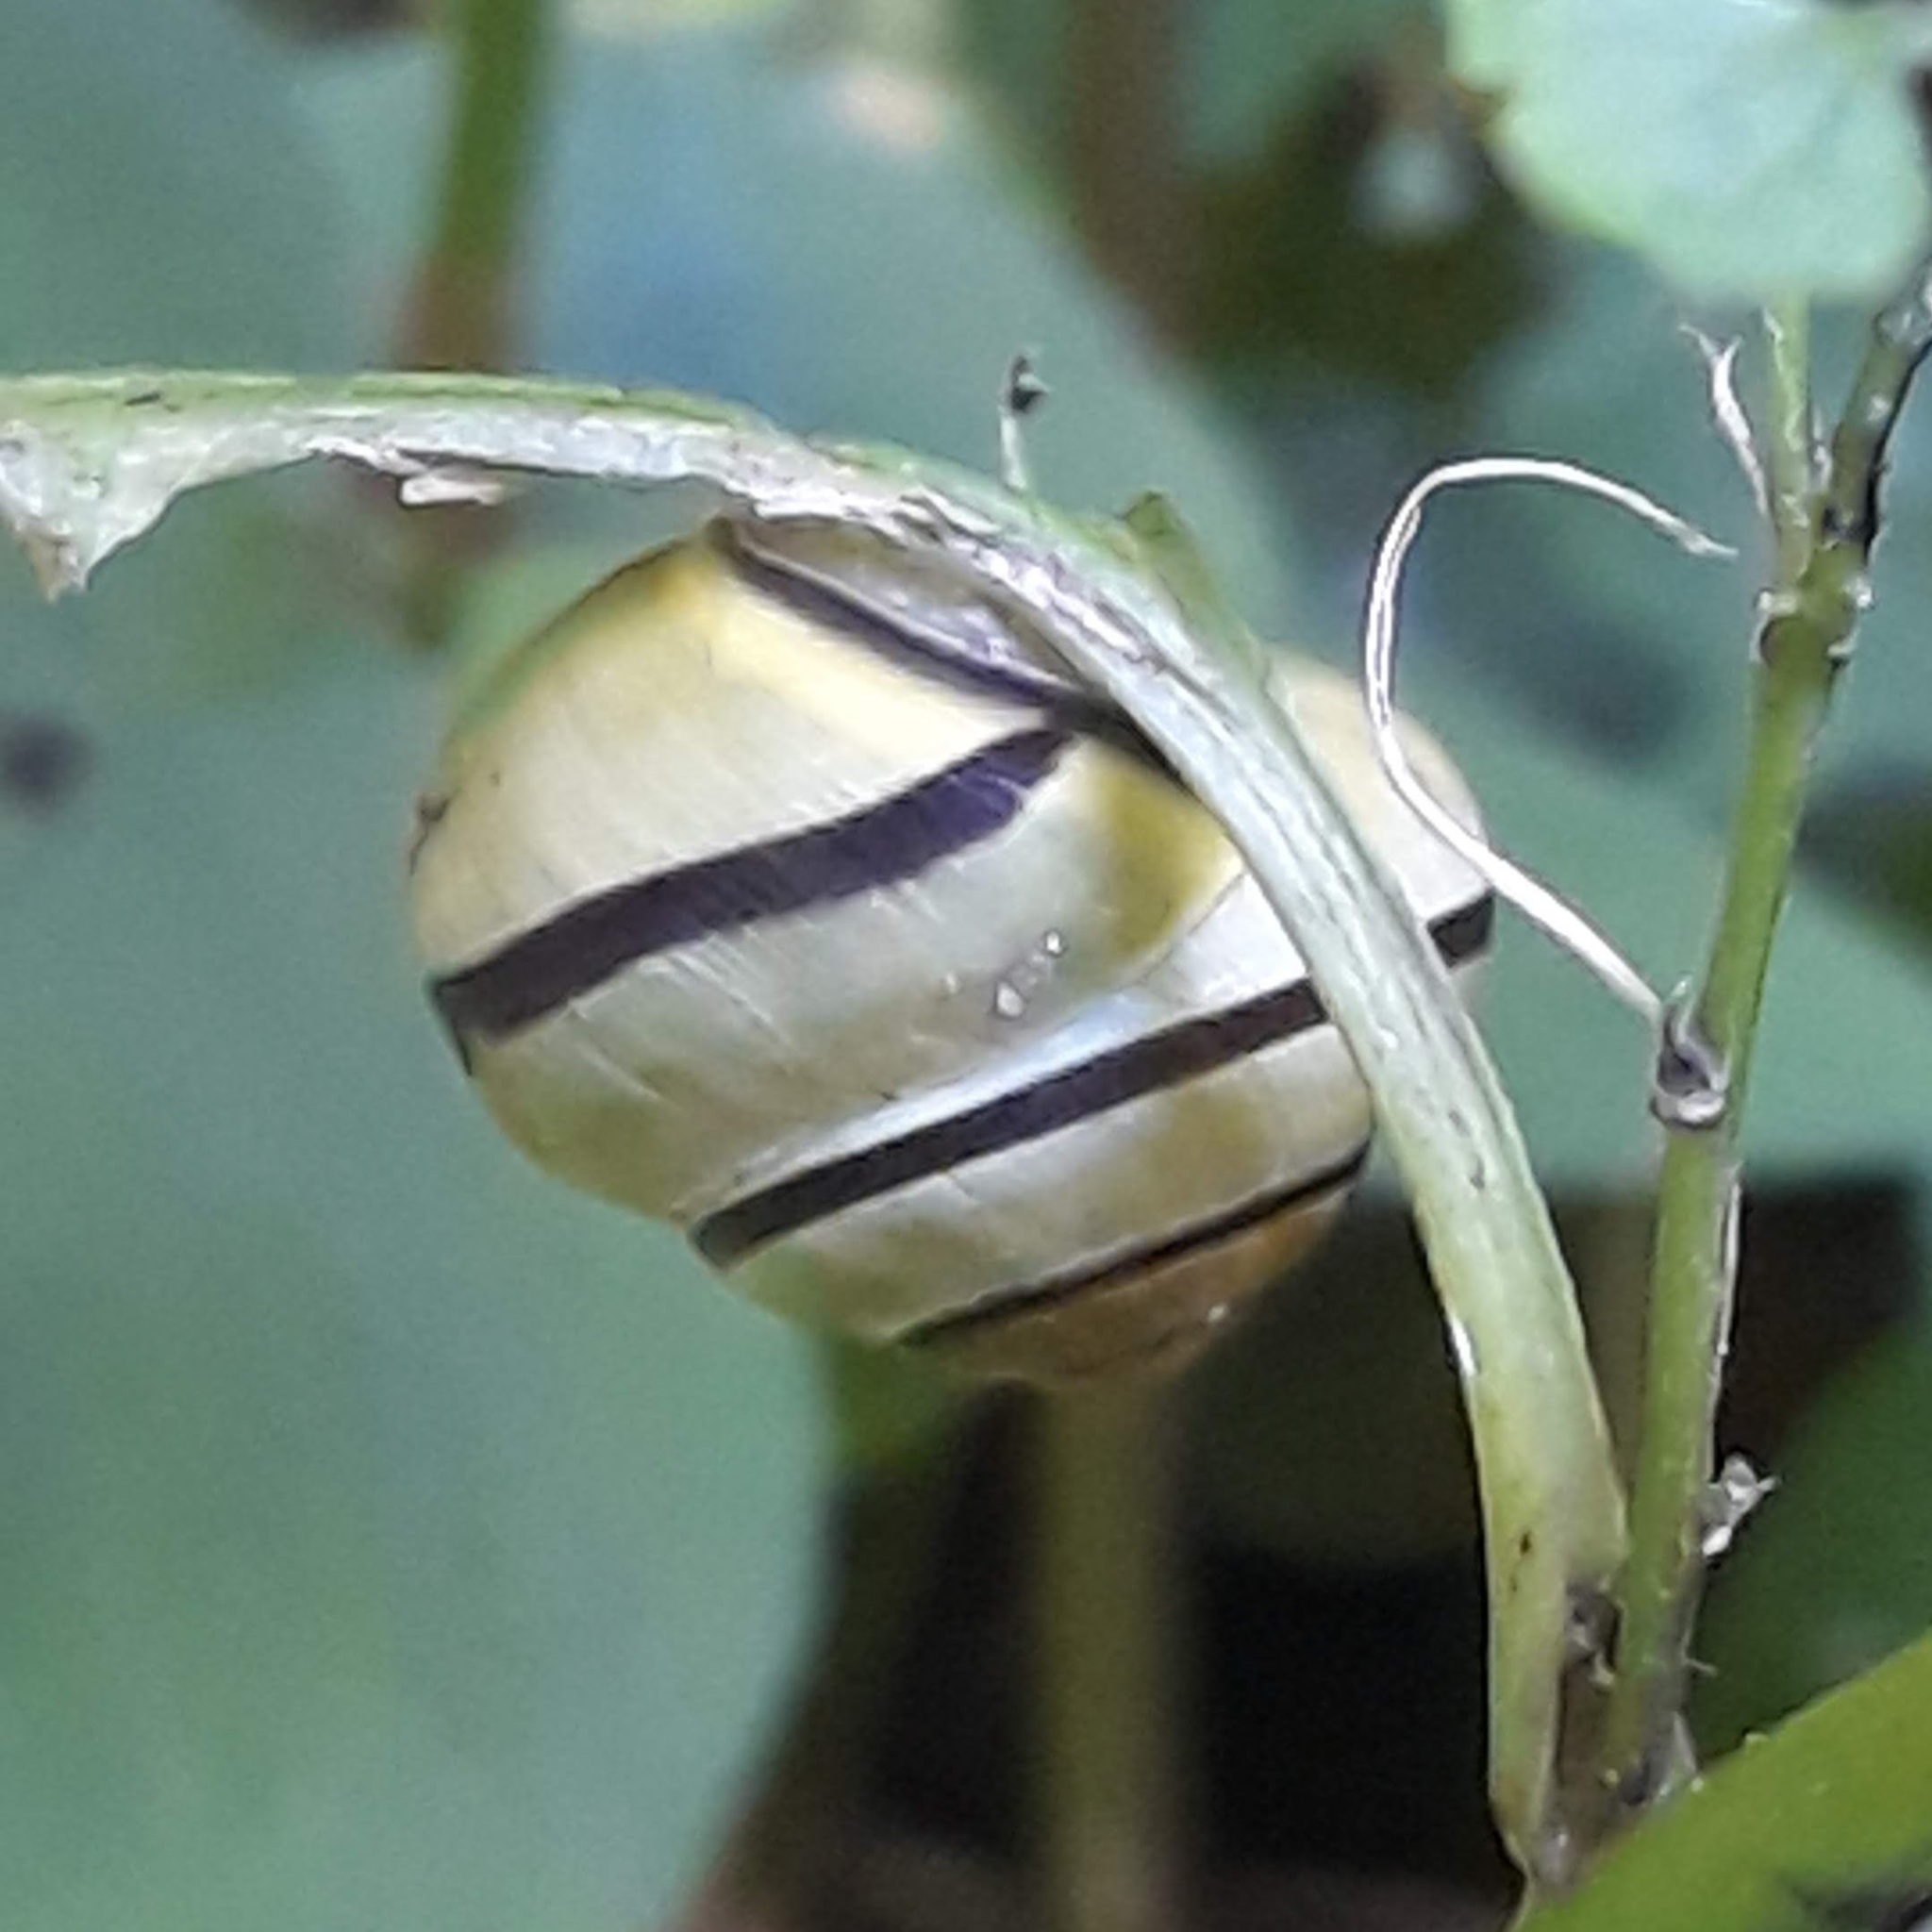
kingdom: Animalia
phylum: Mollusca
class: Gastropoda
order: Stylommatophora
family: Helicidae
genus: Cepaea
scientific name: Cepaea nemoralis
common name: Grovesnail
